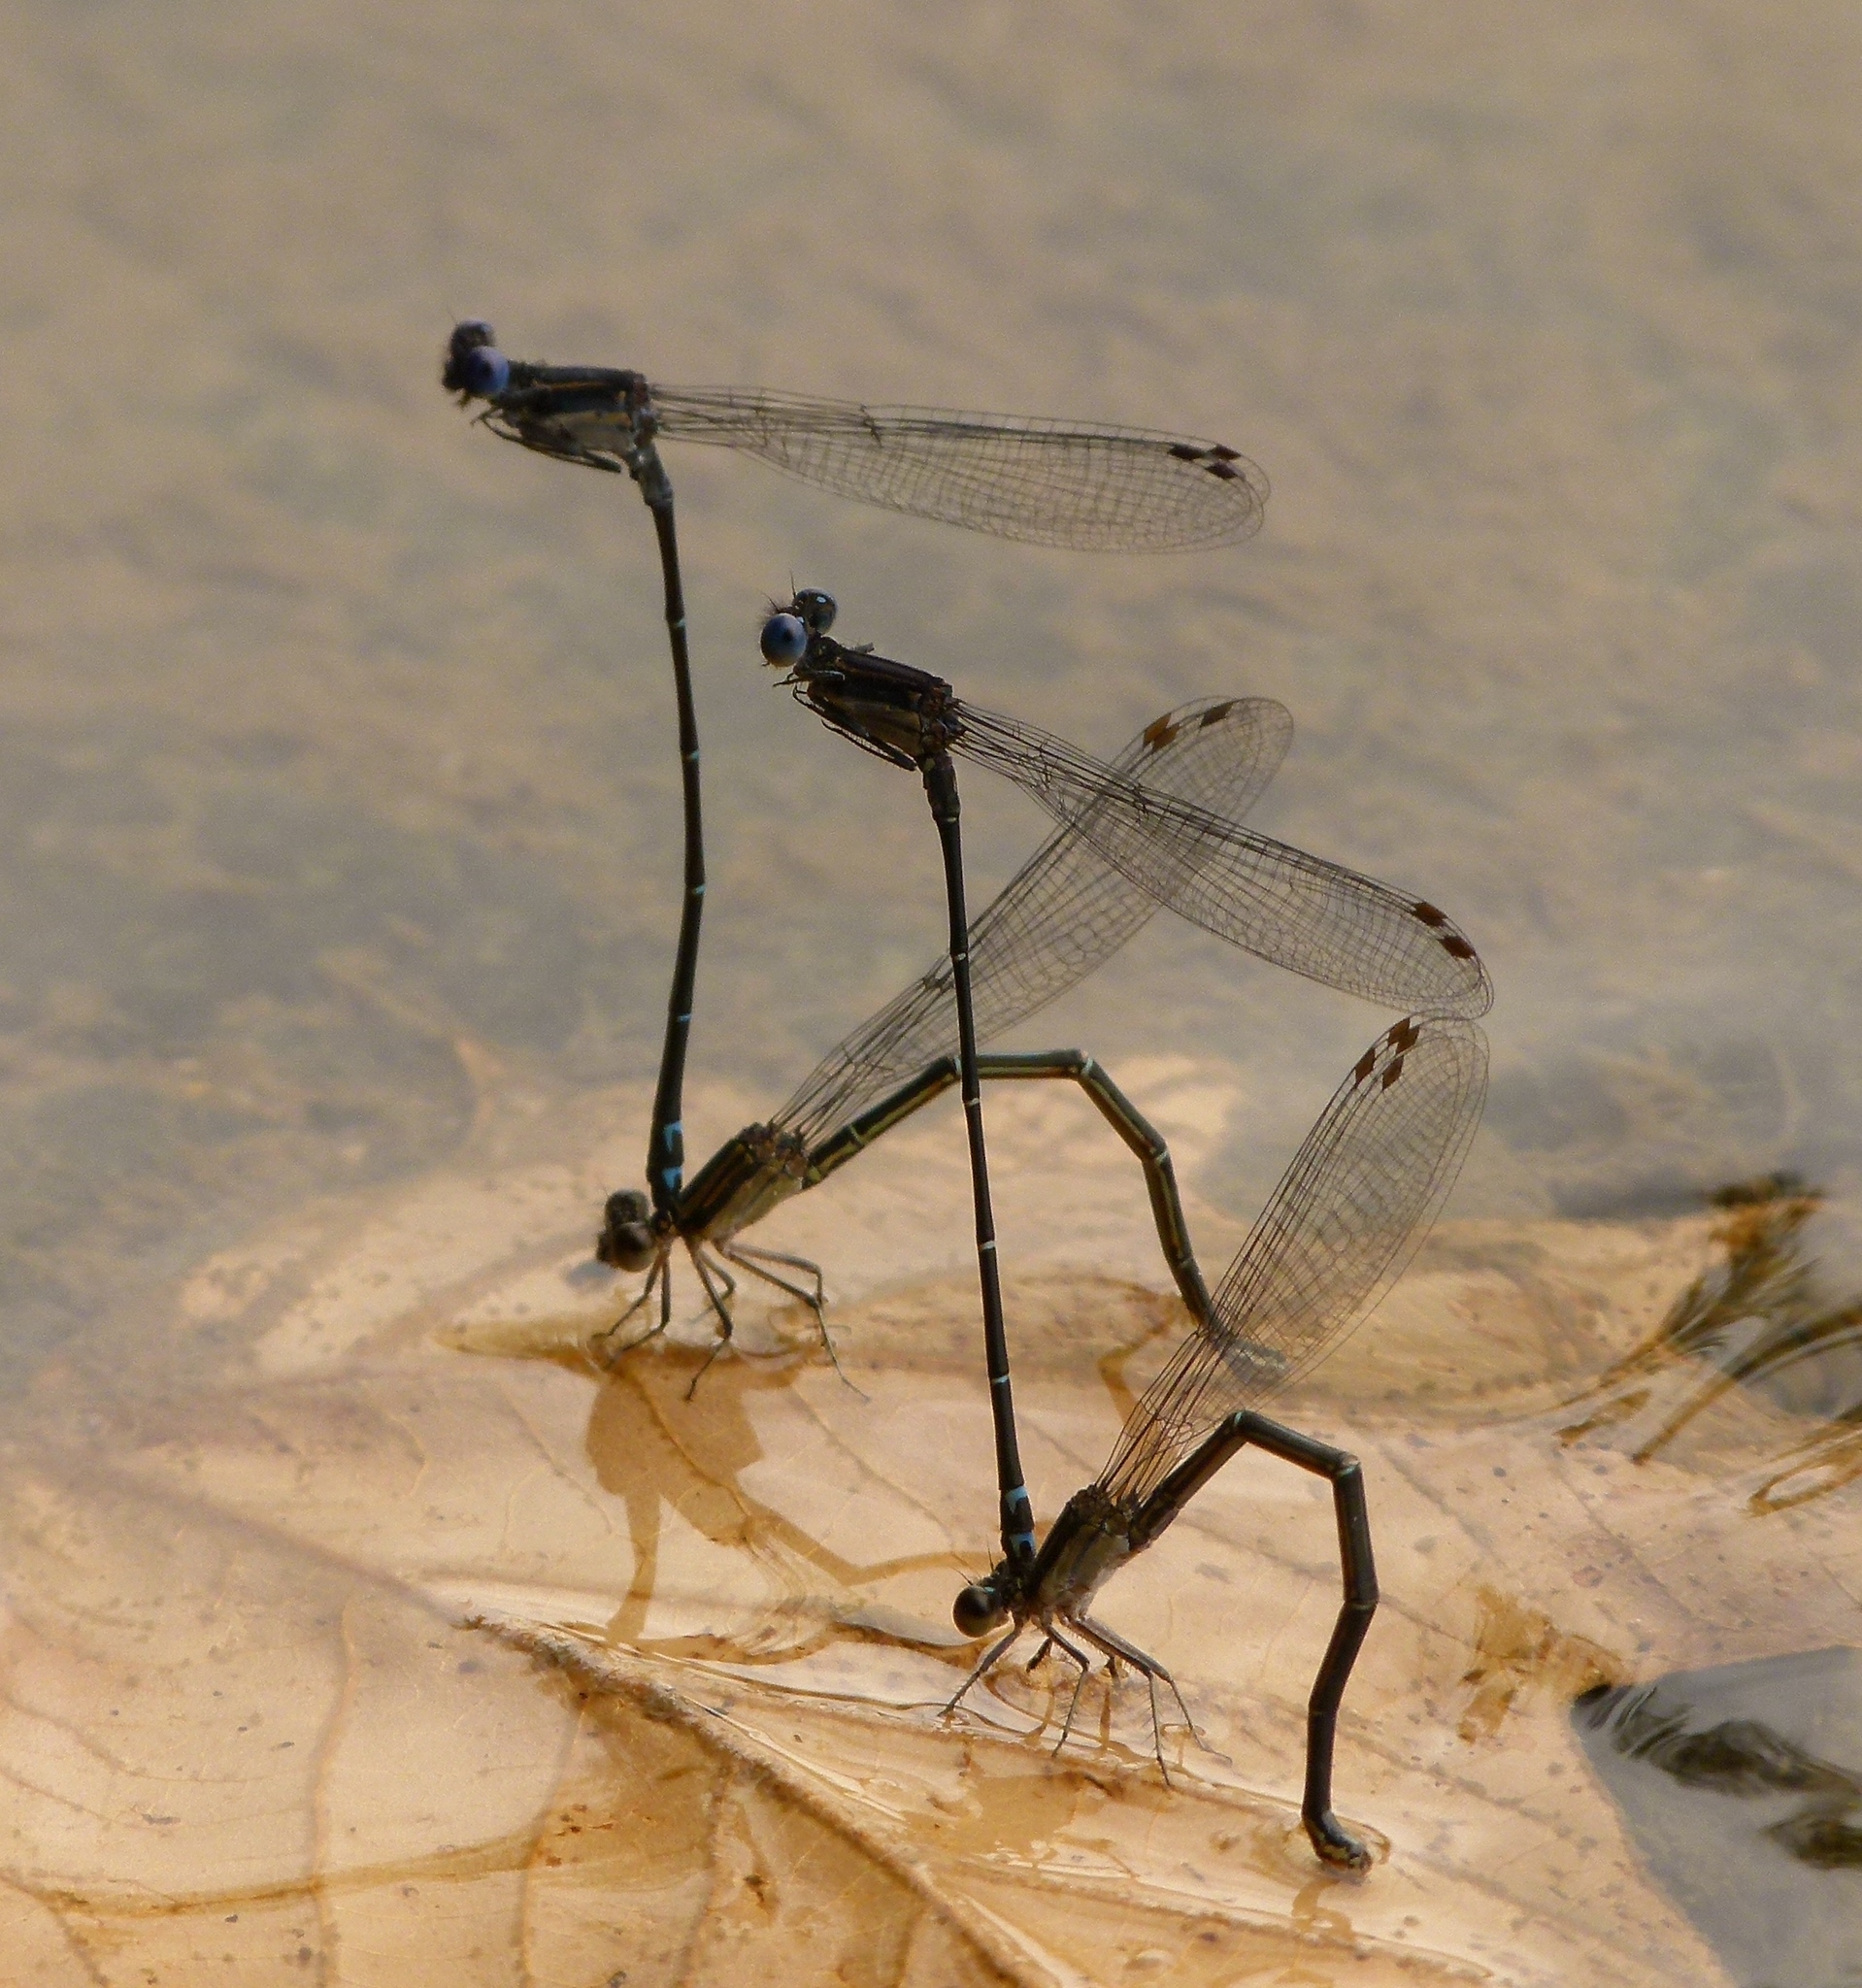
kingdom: Animalia
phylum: Arthropoda
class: Insecta
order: Odonata
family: Coenagrionidae
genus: Argia
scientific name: Argia translata
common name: Dusky dancer
